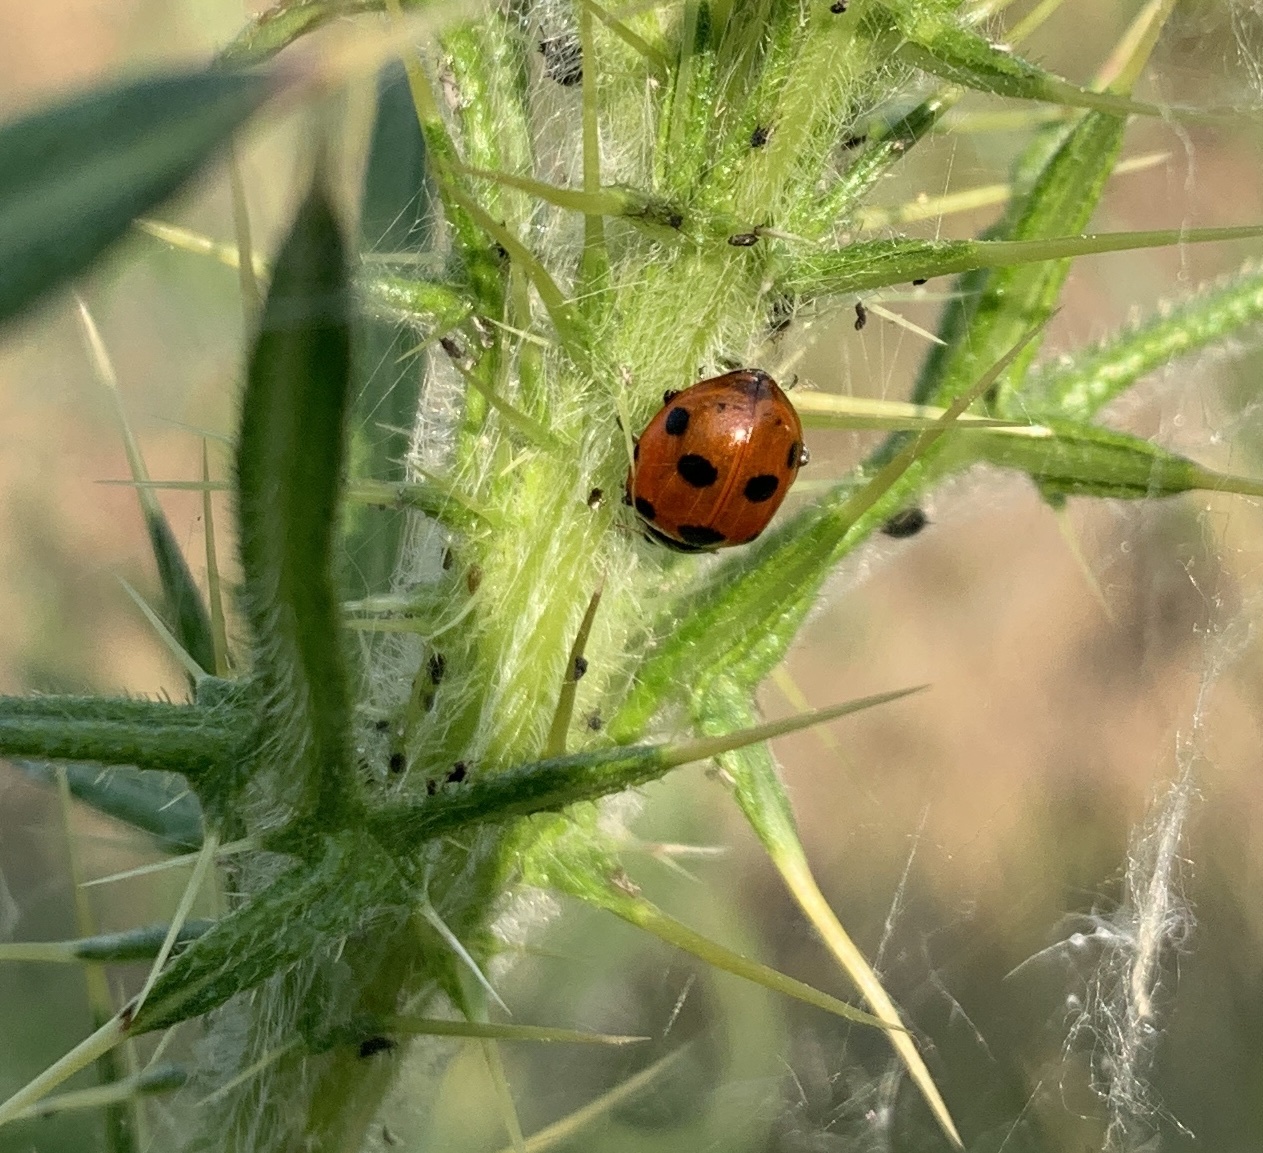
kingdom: Animalia
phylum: Arthropoda
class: Insecta
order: Coleoptera
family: Coccinellidae
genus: Ceratomegilla
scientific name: Ceratomegilla undecimnotata
